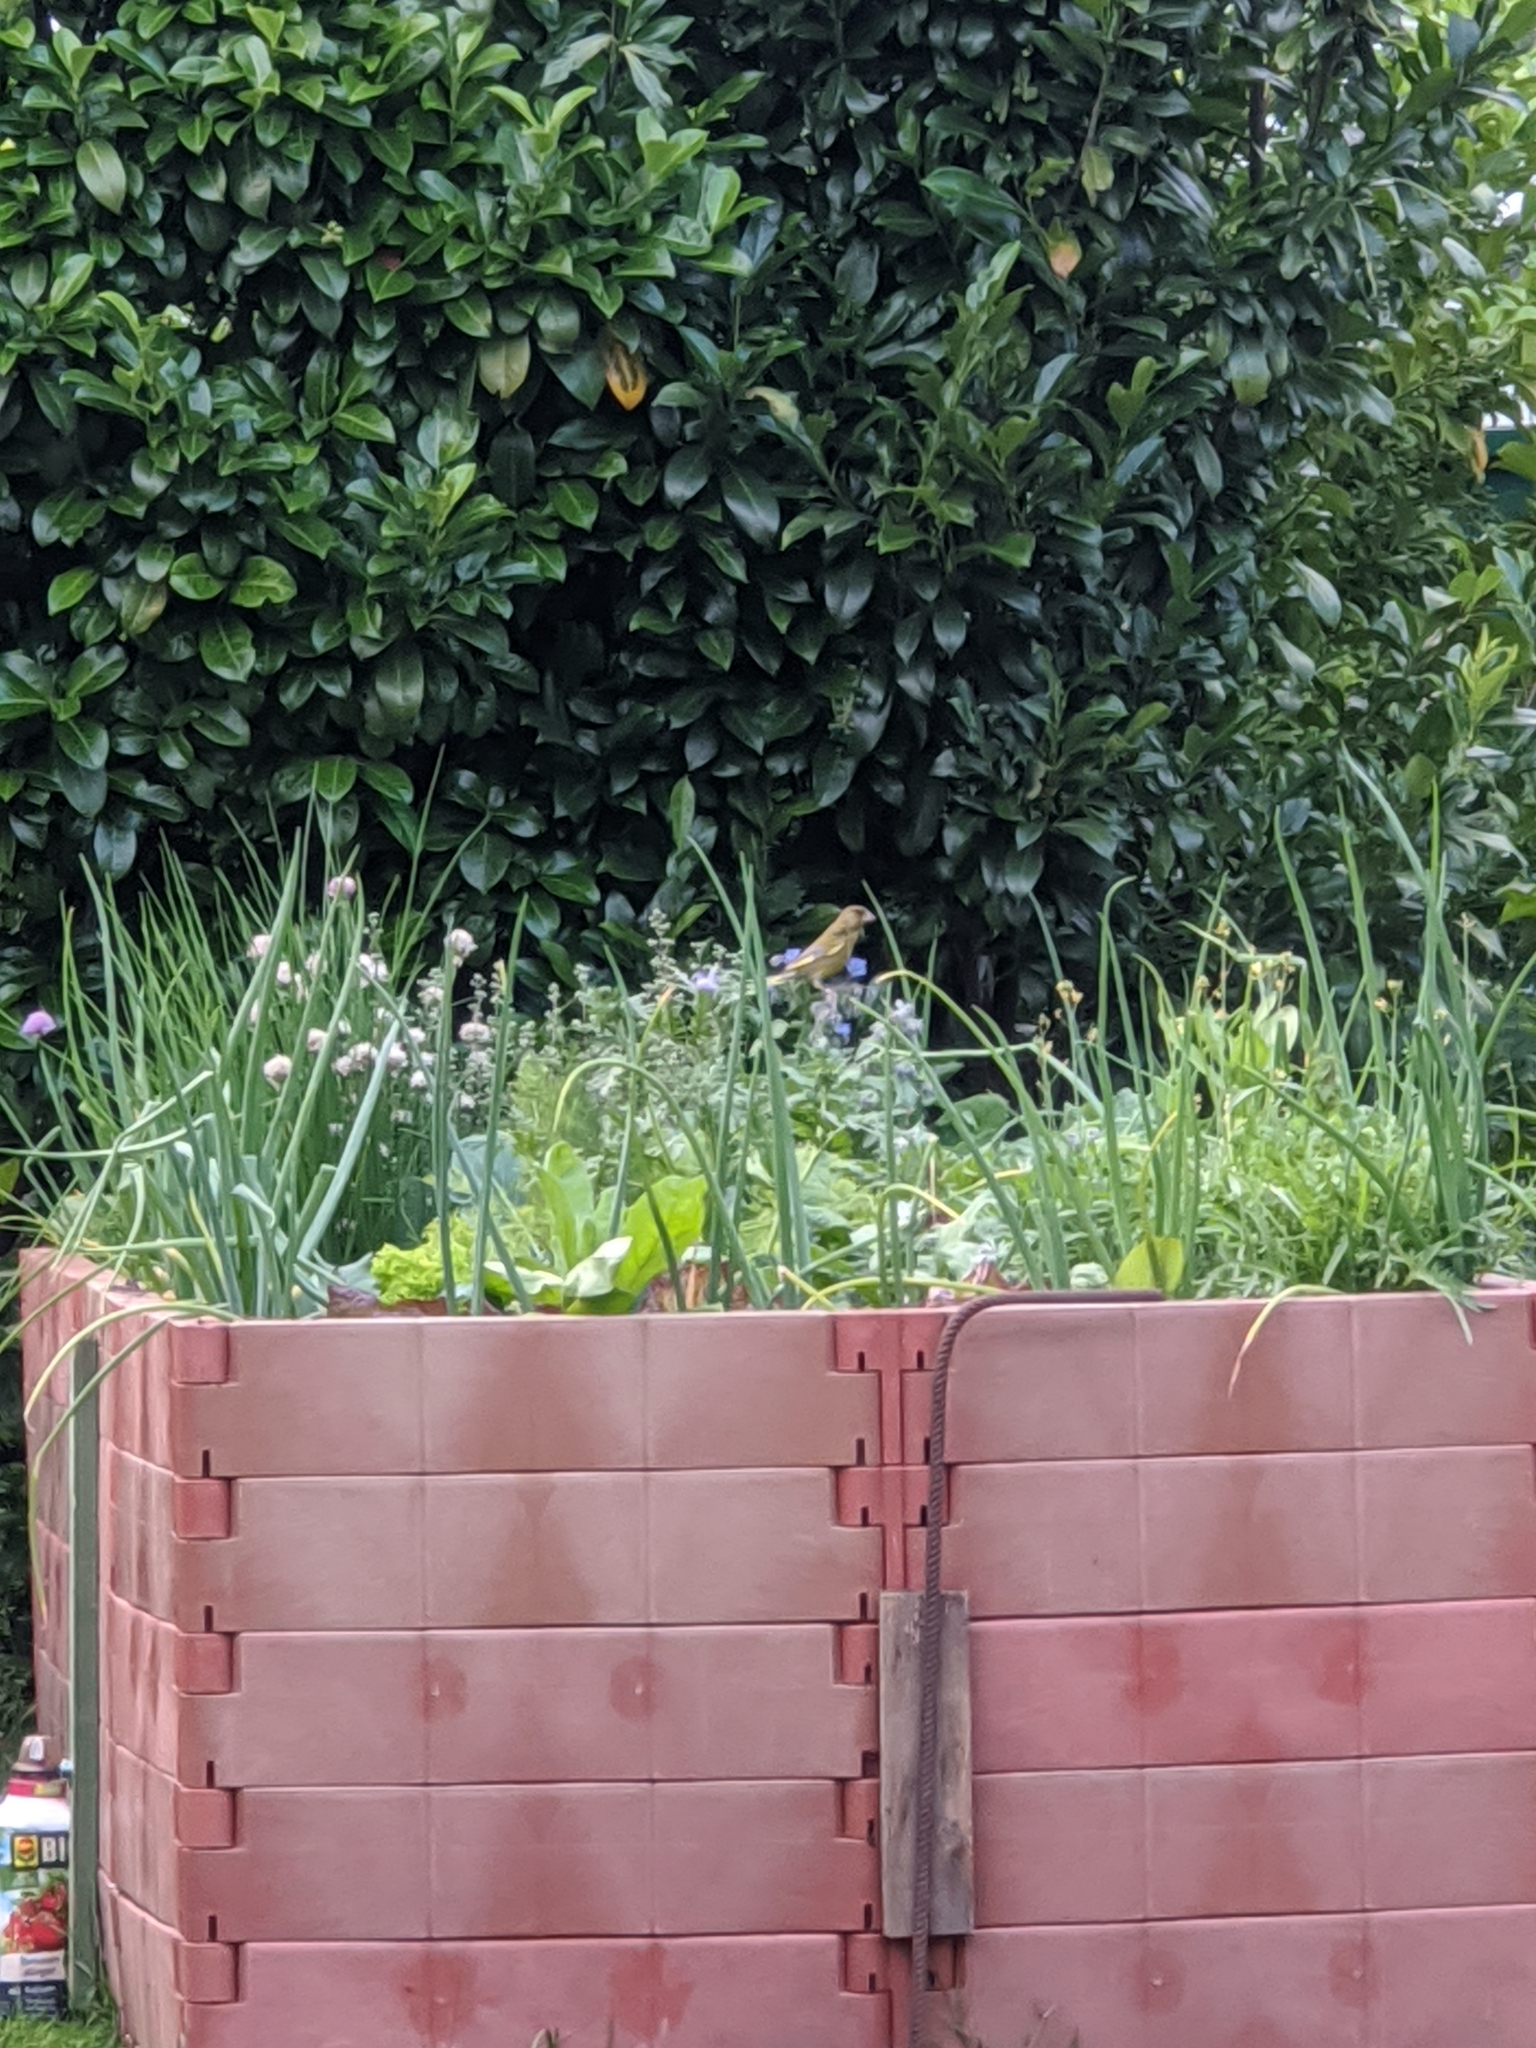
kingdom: Plantae
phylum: Tracheophyta
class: Liliopsida
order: Poales
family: Poaceae
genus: Chloris
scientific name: Chloris chloris
